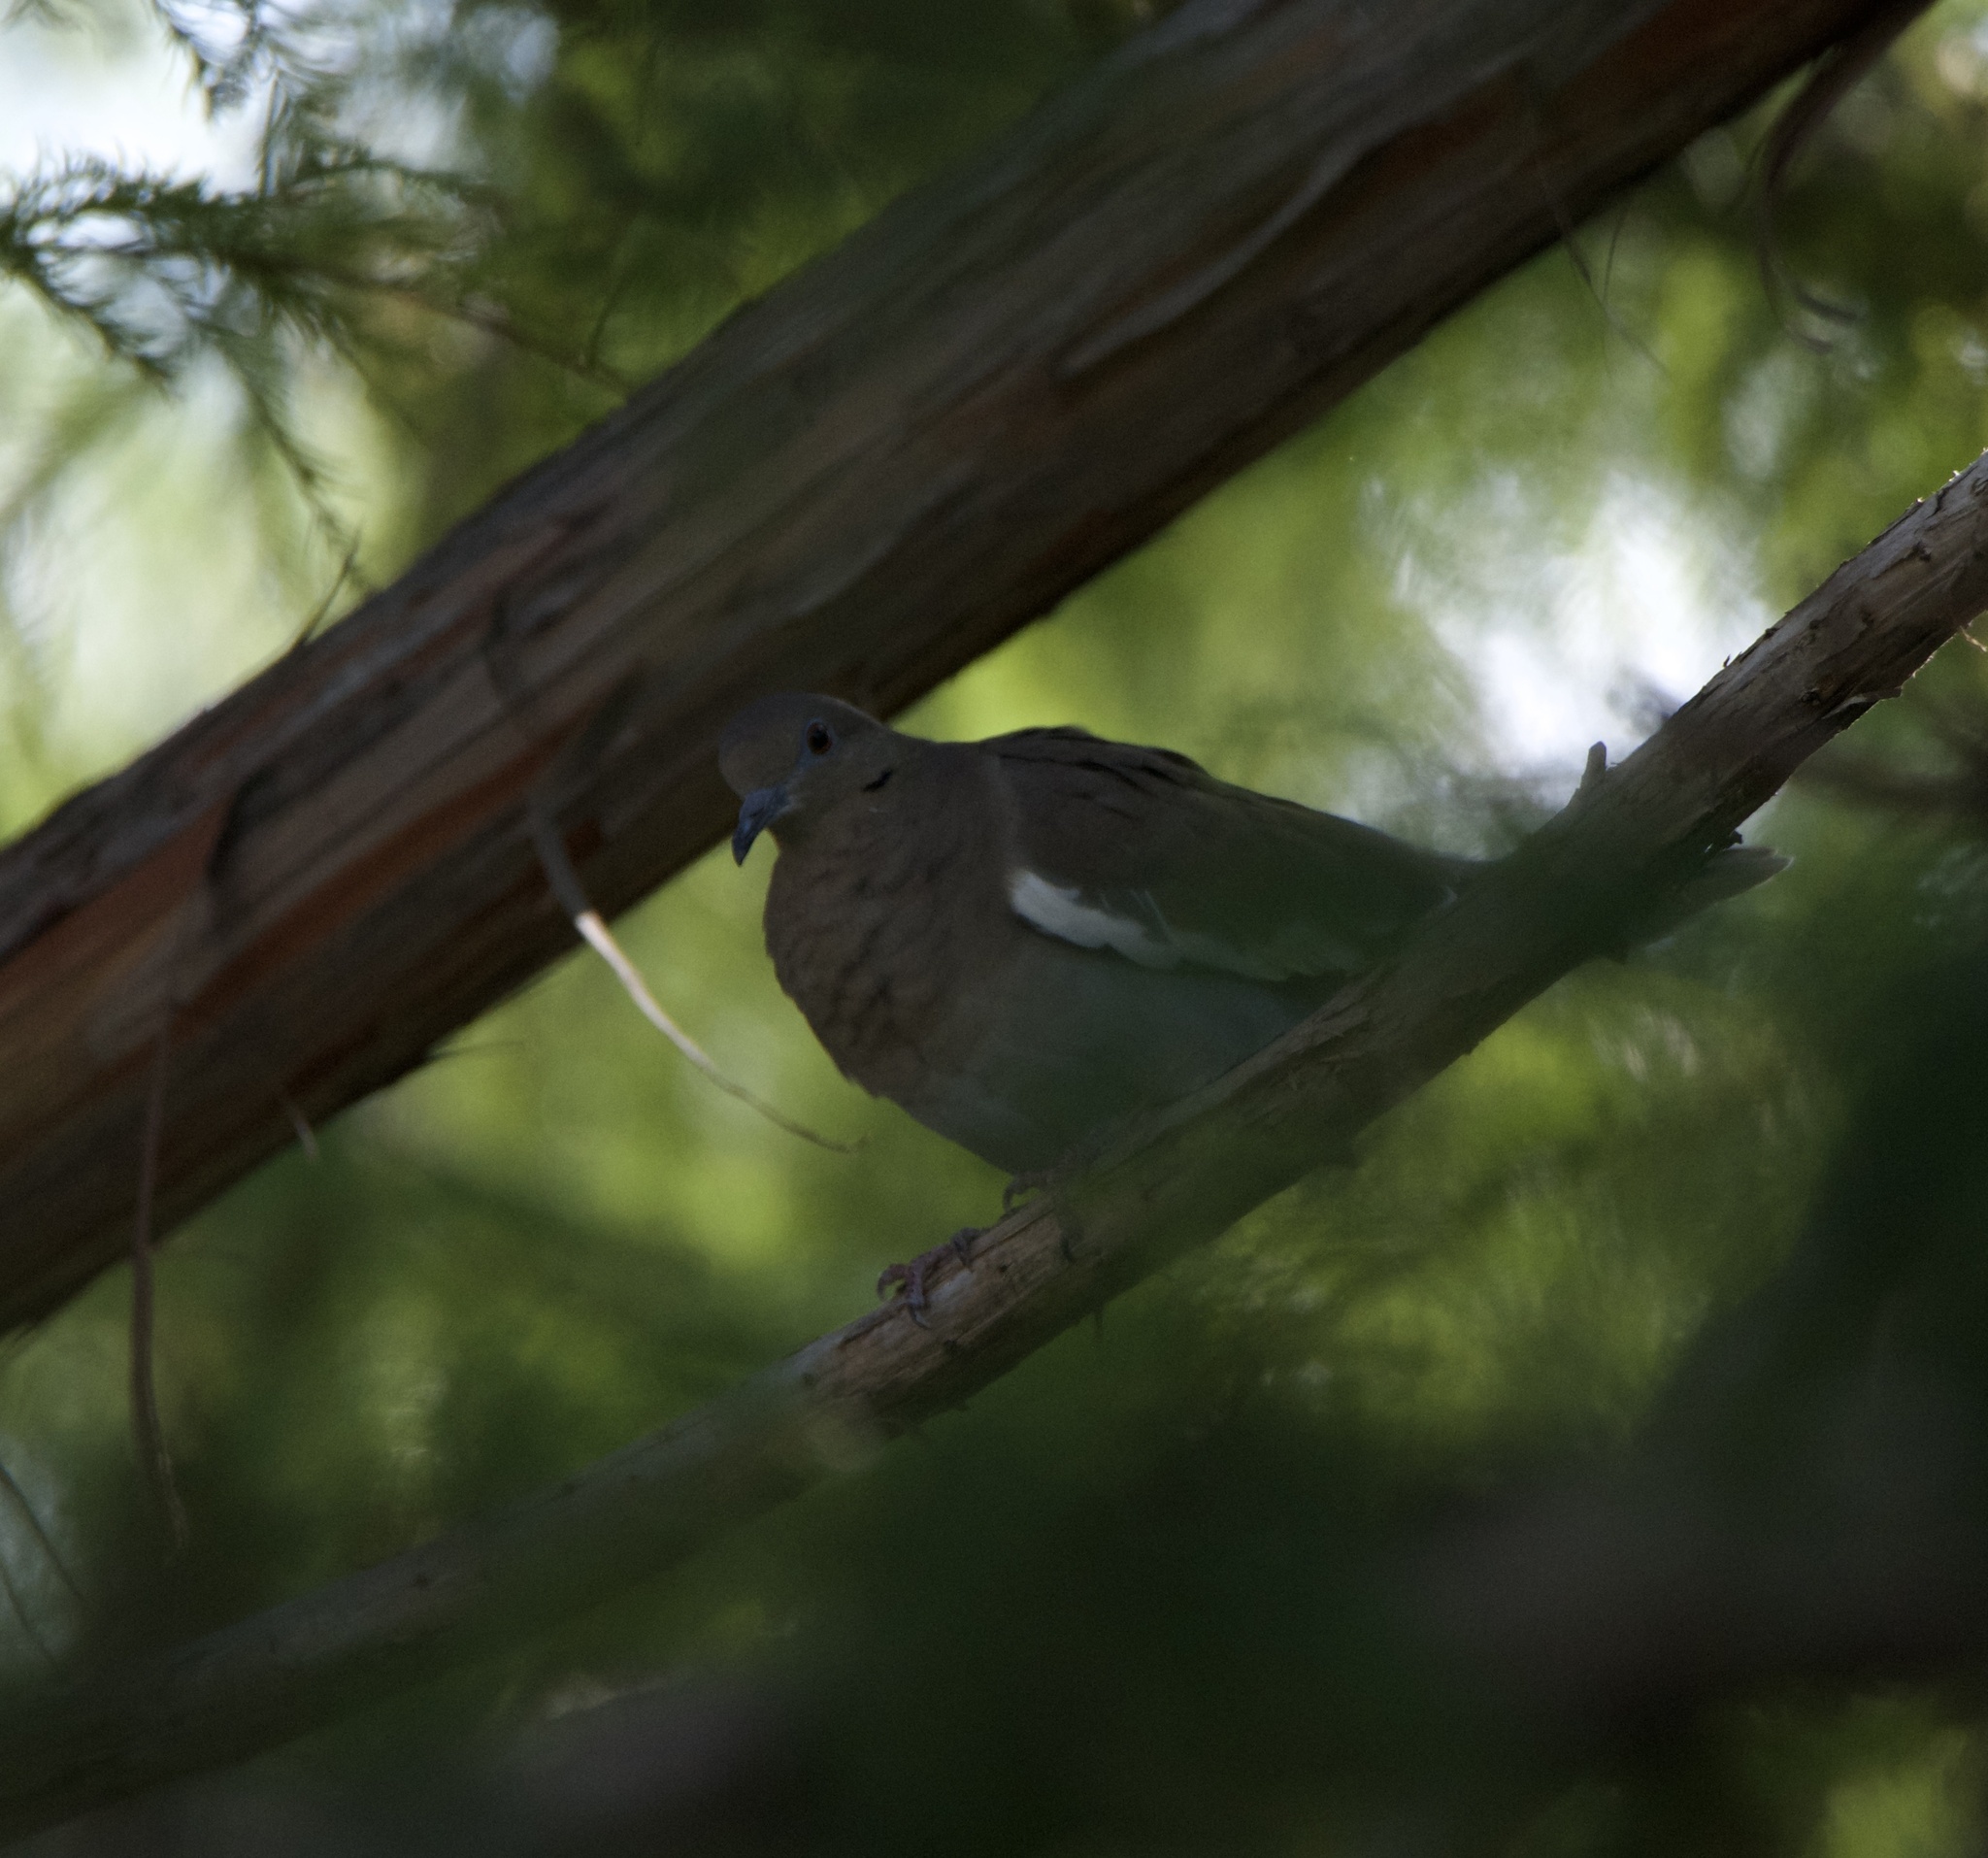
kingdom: Animalia
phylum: Chordata
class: Aves
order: Columbiformes
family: Columbidae
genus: Zenaida
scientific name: Zenaida asiatica
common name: White-winged dove
